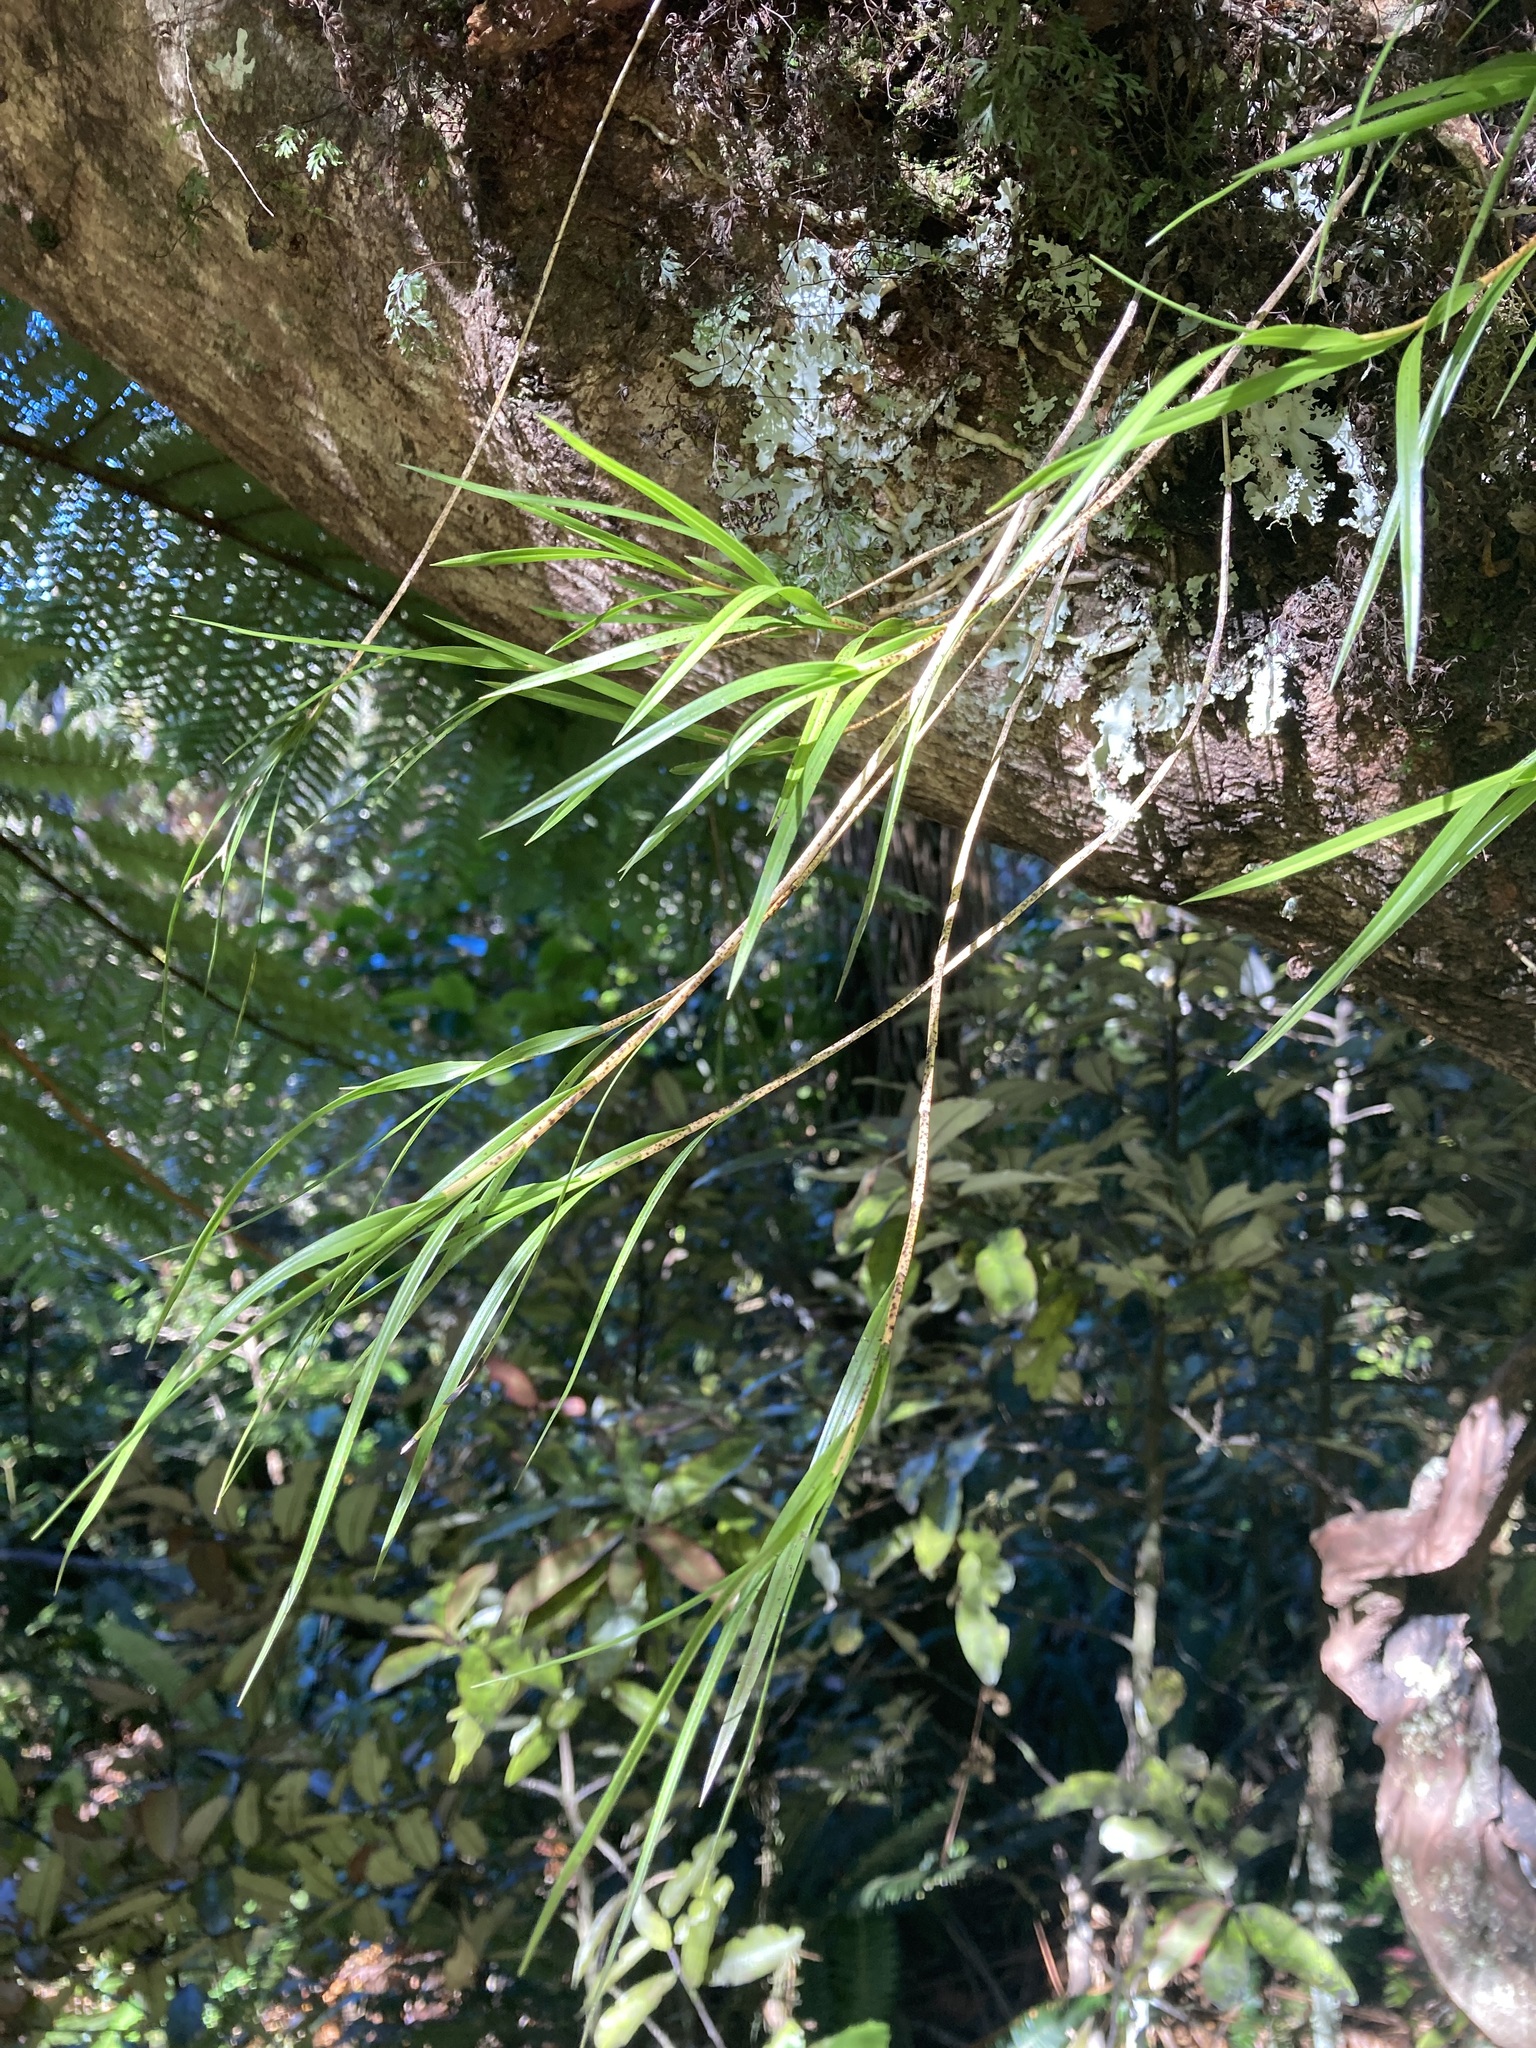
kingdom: Plantae
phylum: Tracheophyta
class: Liliopsida
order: Asparagales
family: Orchidaceae
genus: Earina
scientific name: Earina mucronata
